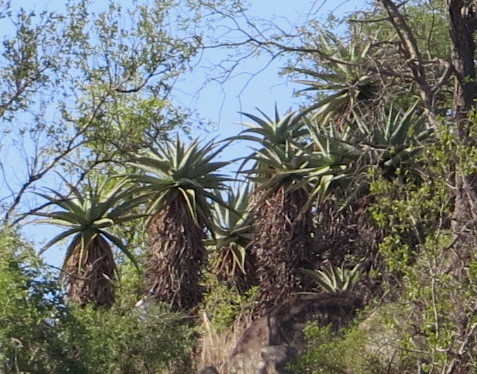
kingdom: Plantae
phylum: Tracheophyta
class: Liliopsida
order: Asparagales
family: Asphodelaceae
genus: Aloe
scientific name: Aloe marlothii
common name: Flat-flowered aloe
